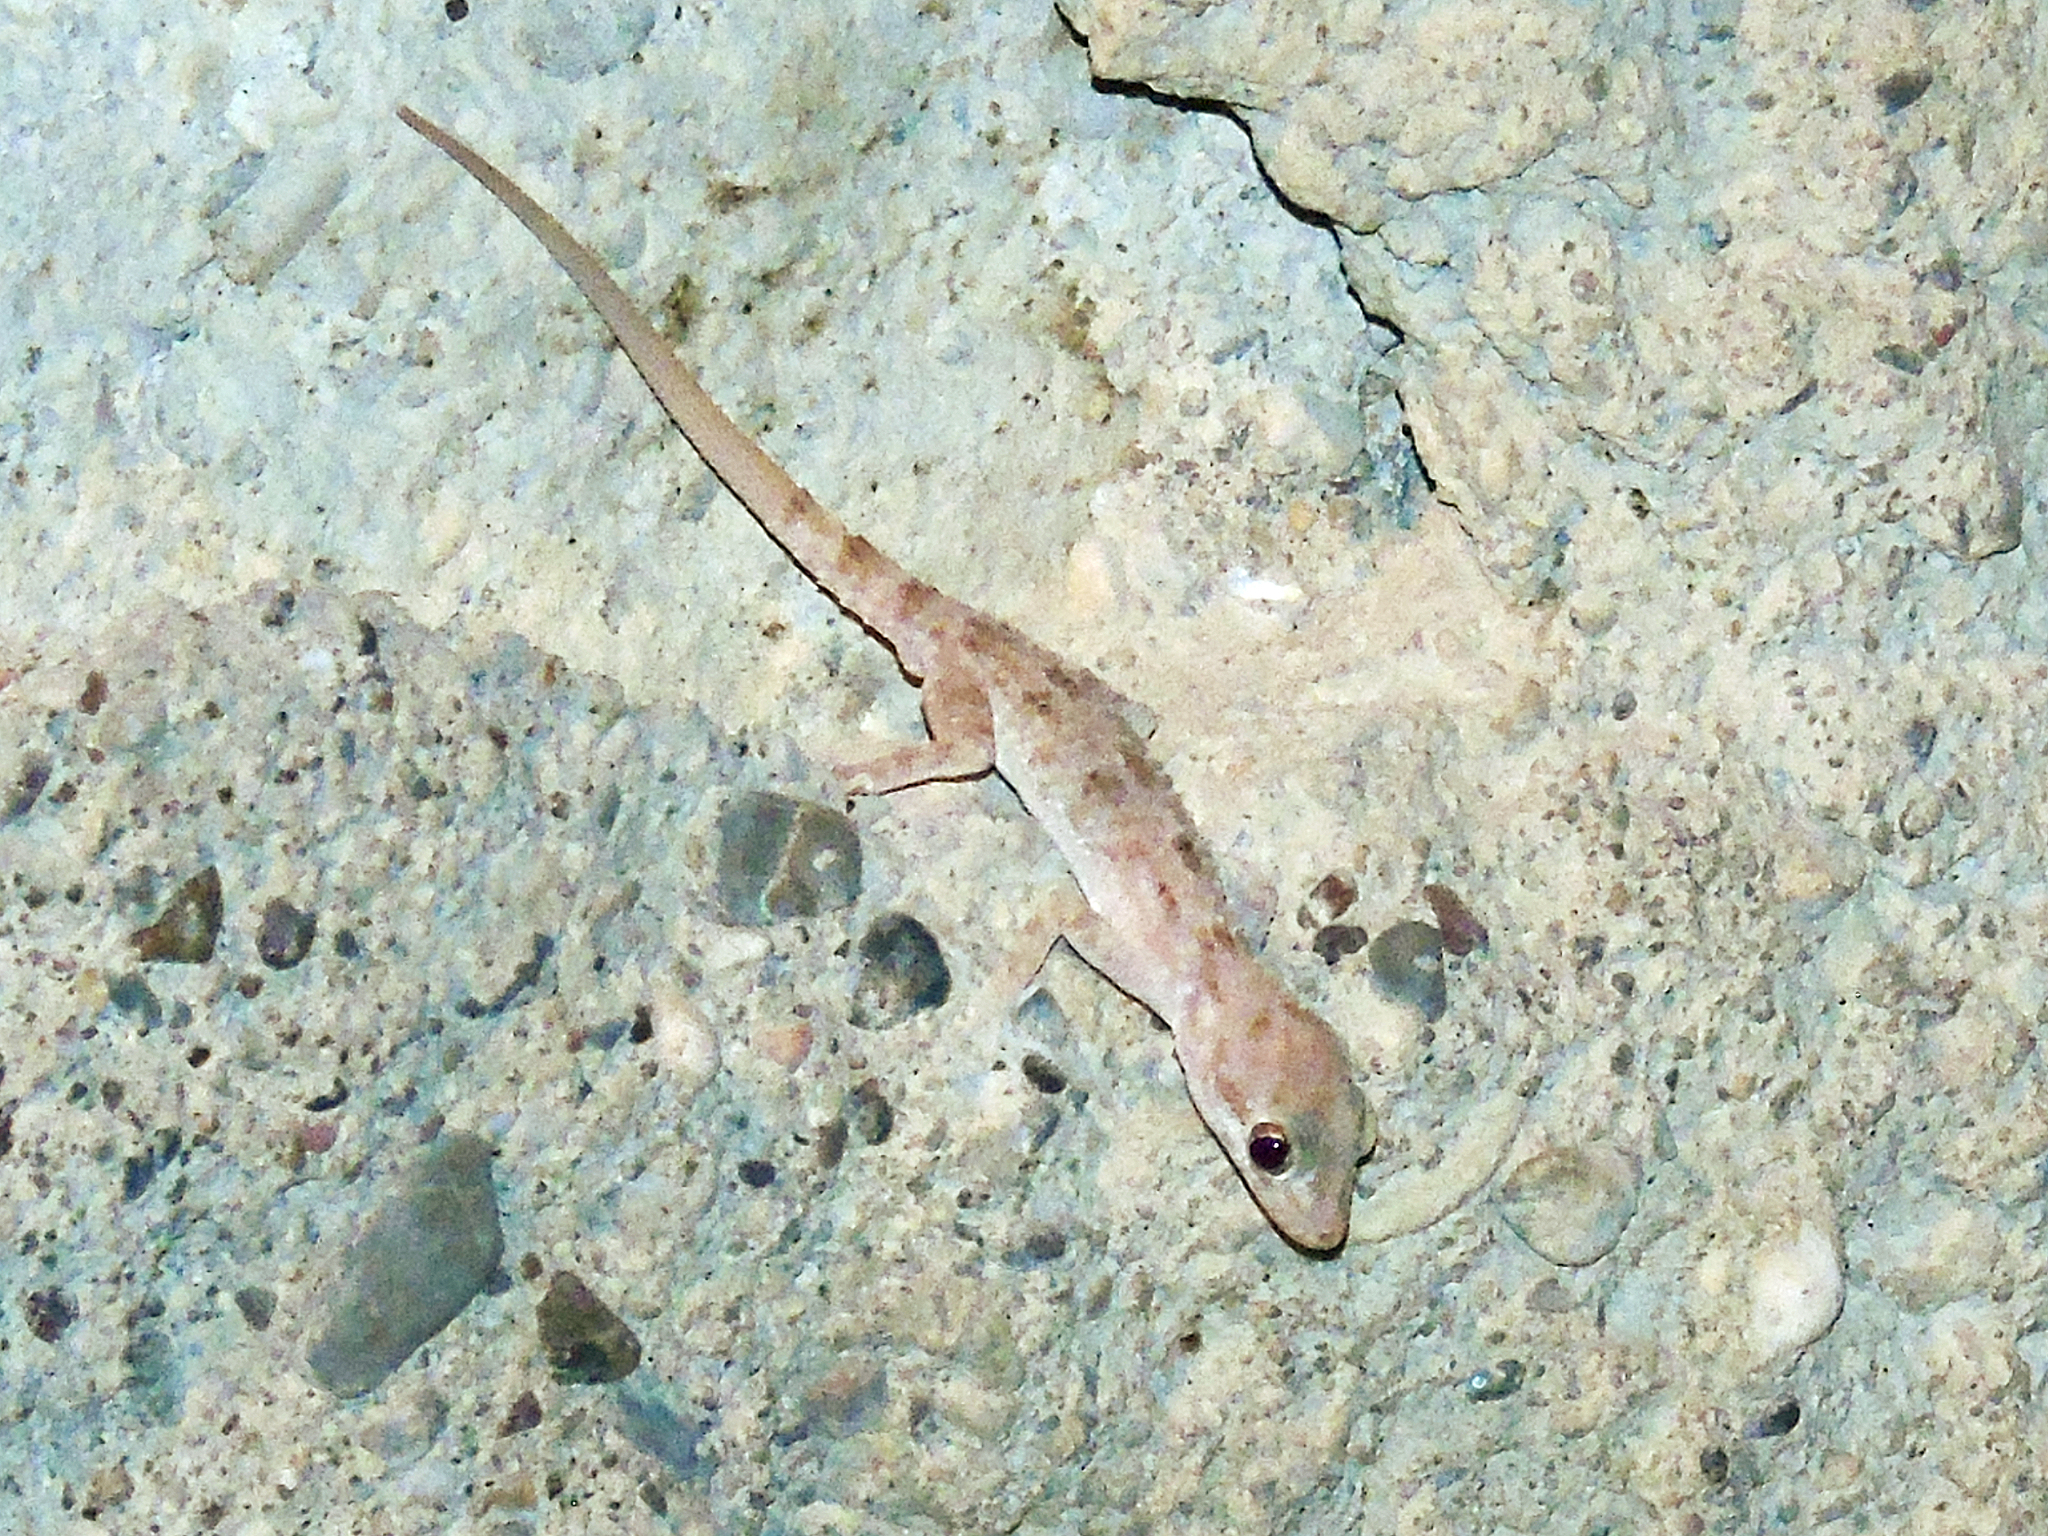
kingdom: Animalia
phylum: Chordata
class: Squamata
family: Gekkonidae
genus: Cyrtopodion
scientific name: Cyrtopodion scabrum
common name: Rough-tailed gecko
